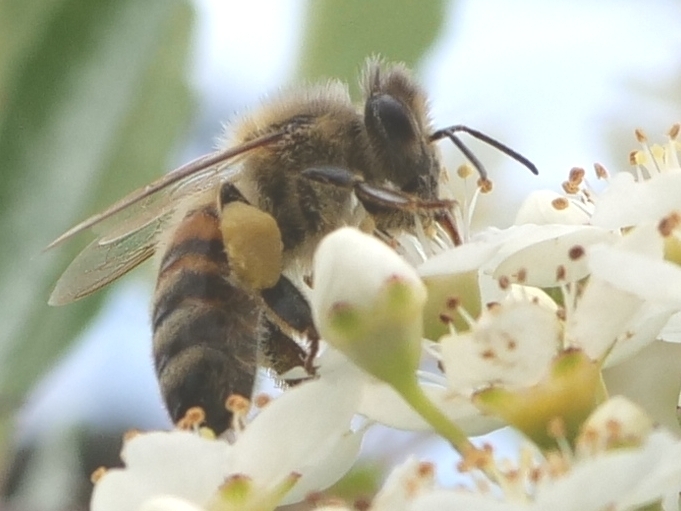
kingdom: Animalia
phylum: Arthropoda
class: Insecta
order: Hymenoptera
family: Apidae
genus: Apis
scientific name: Apis mellifera
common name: Honey bee
